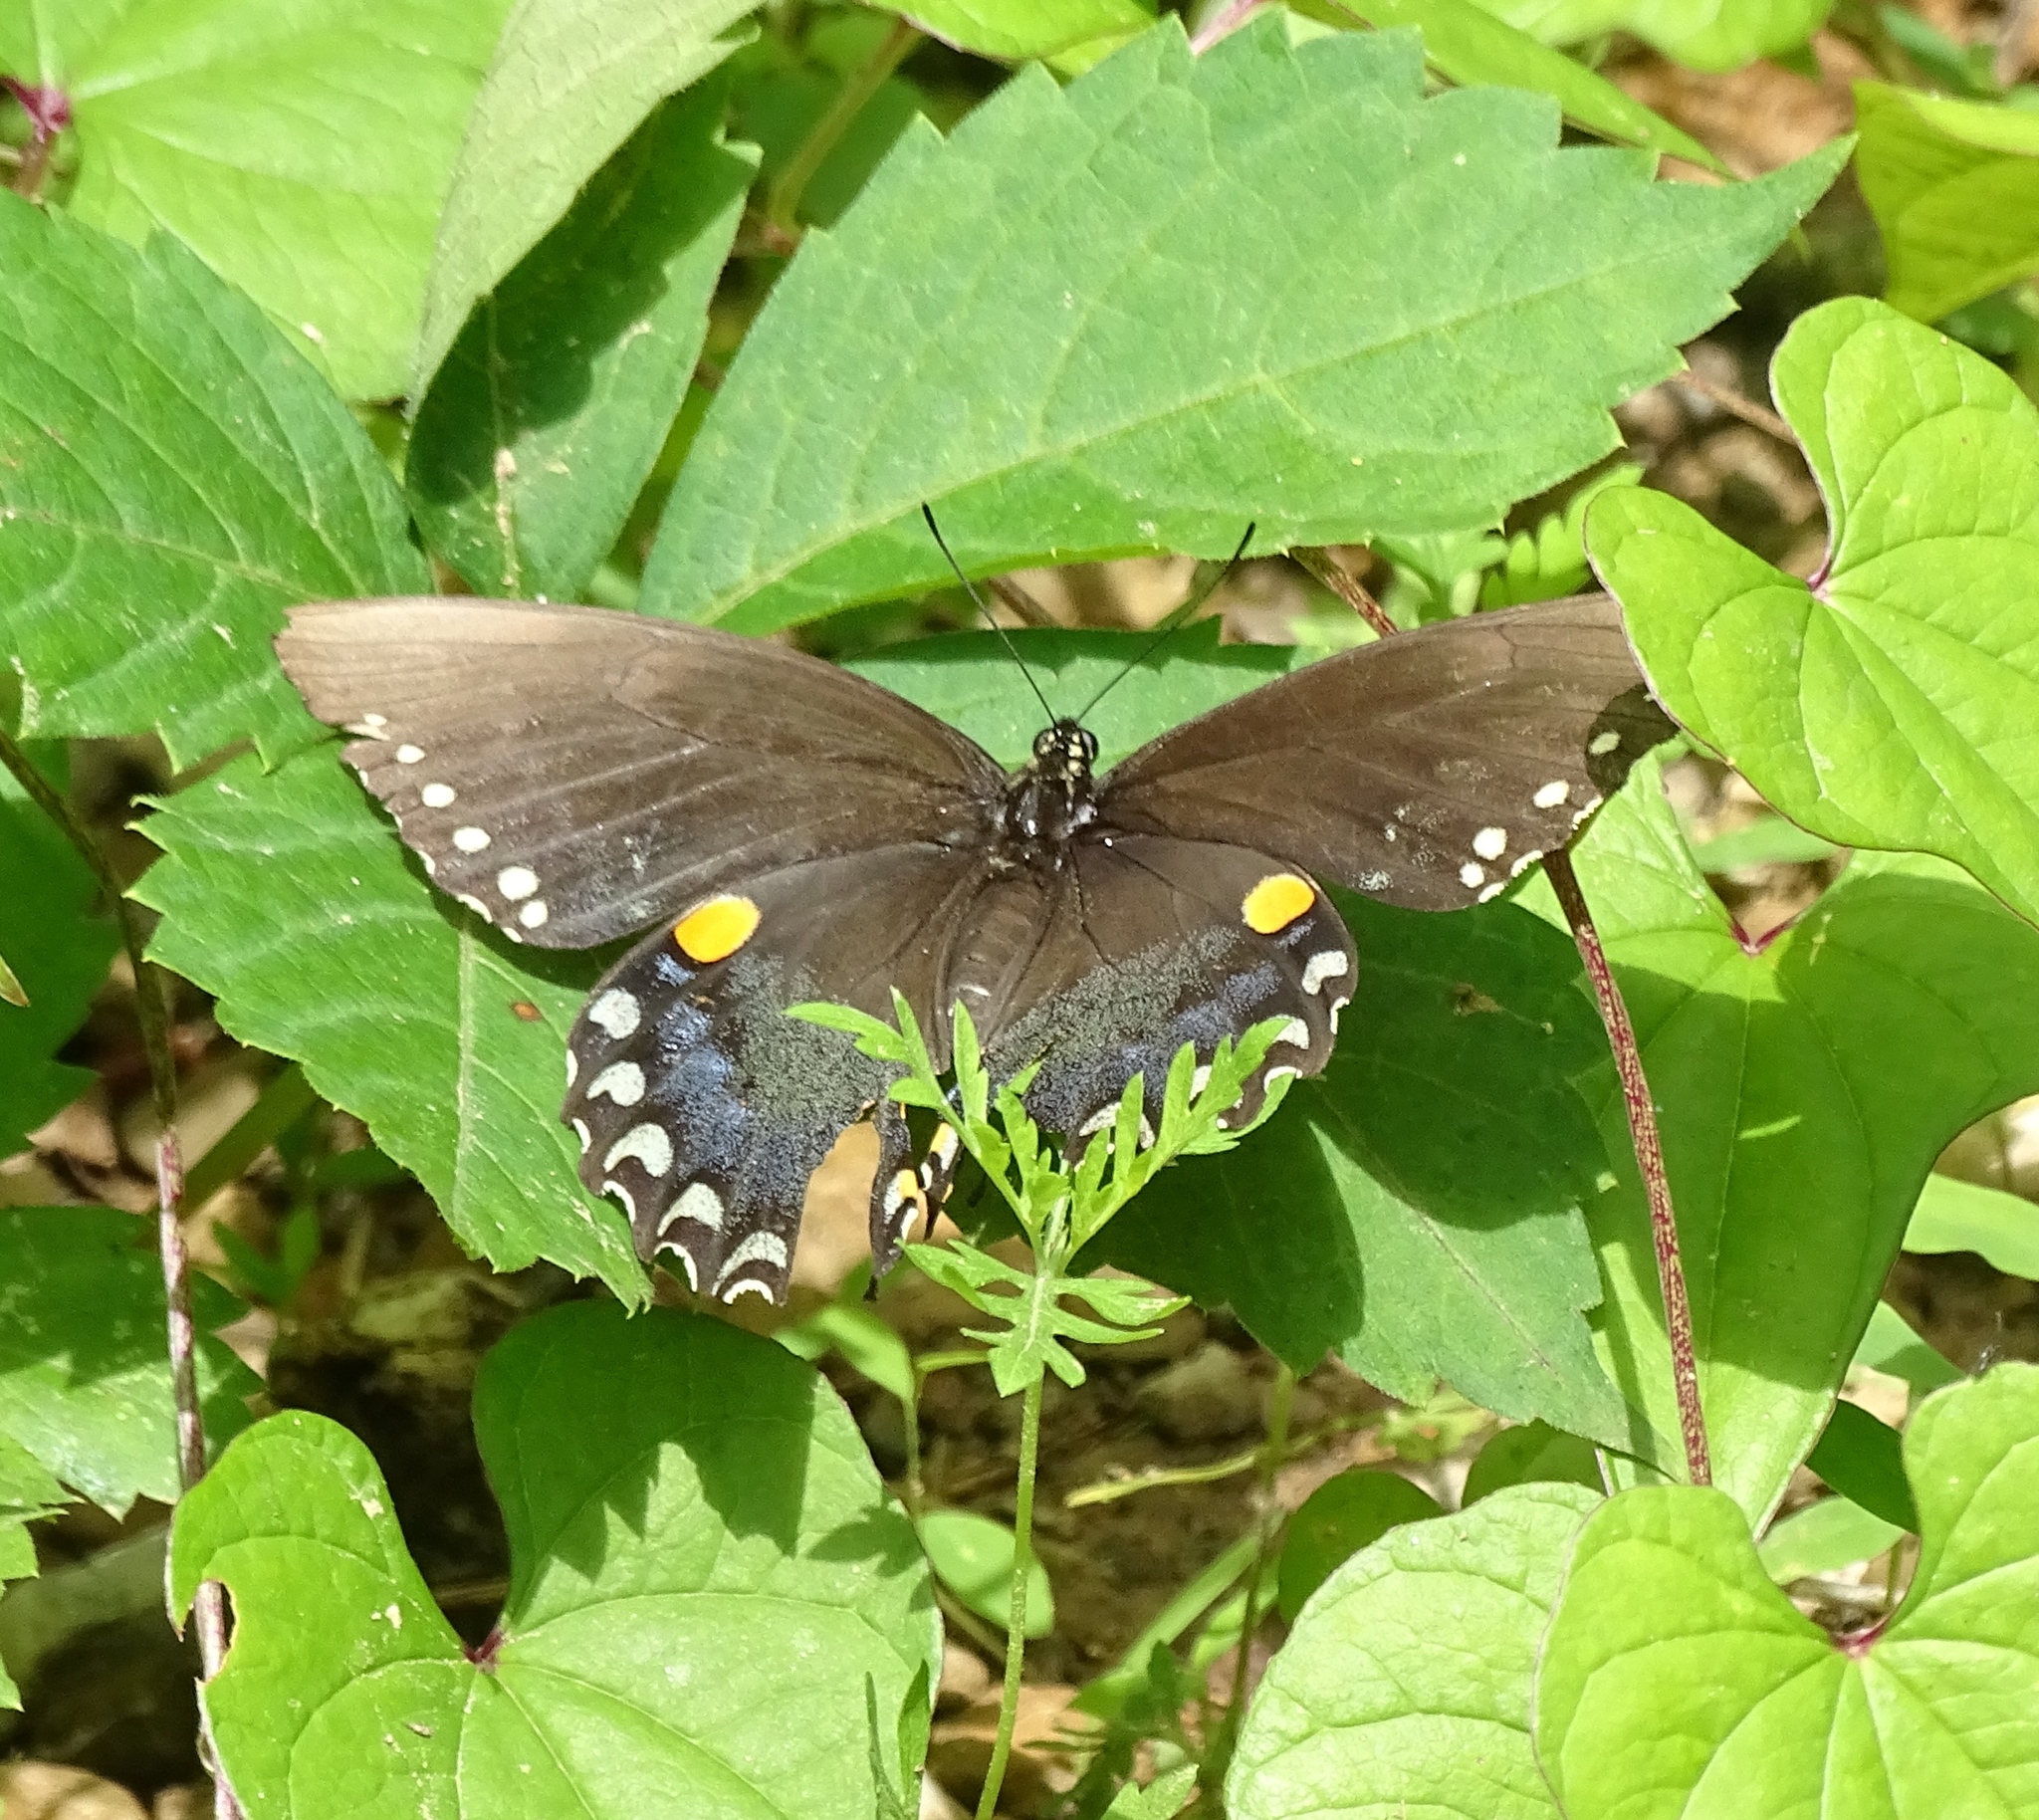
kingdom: Animalia
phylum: Arthropoda
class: Insecta
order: Lepidoptera
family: Papilionidae
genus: Papilio
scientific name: Papilio troilus
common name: Spicebush swallowtail
